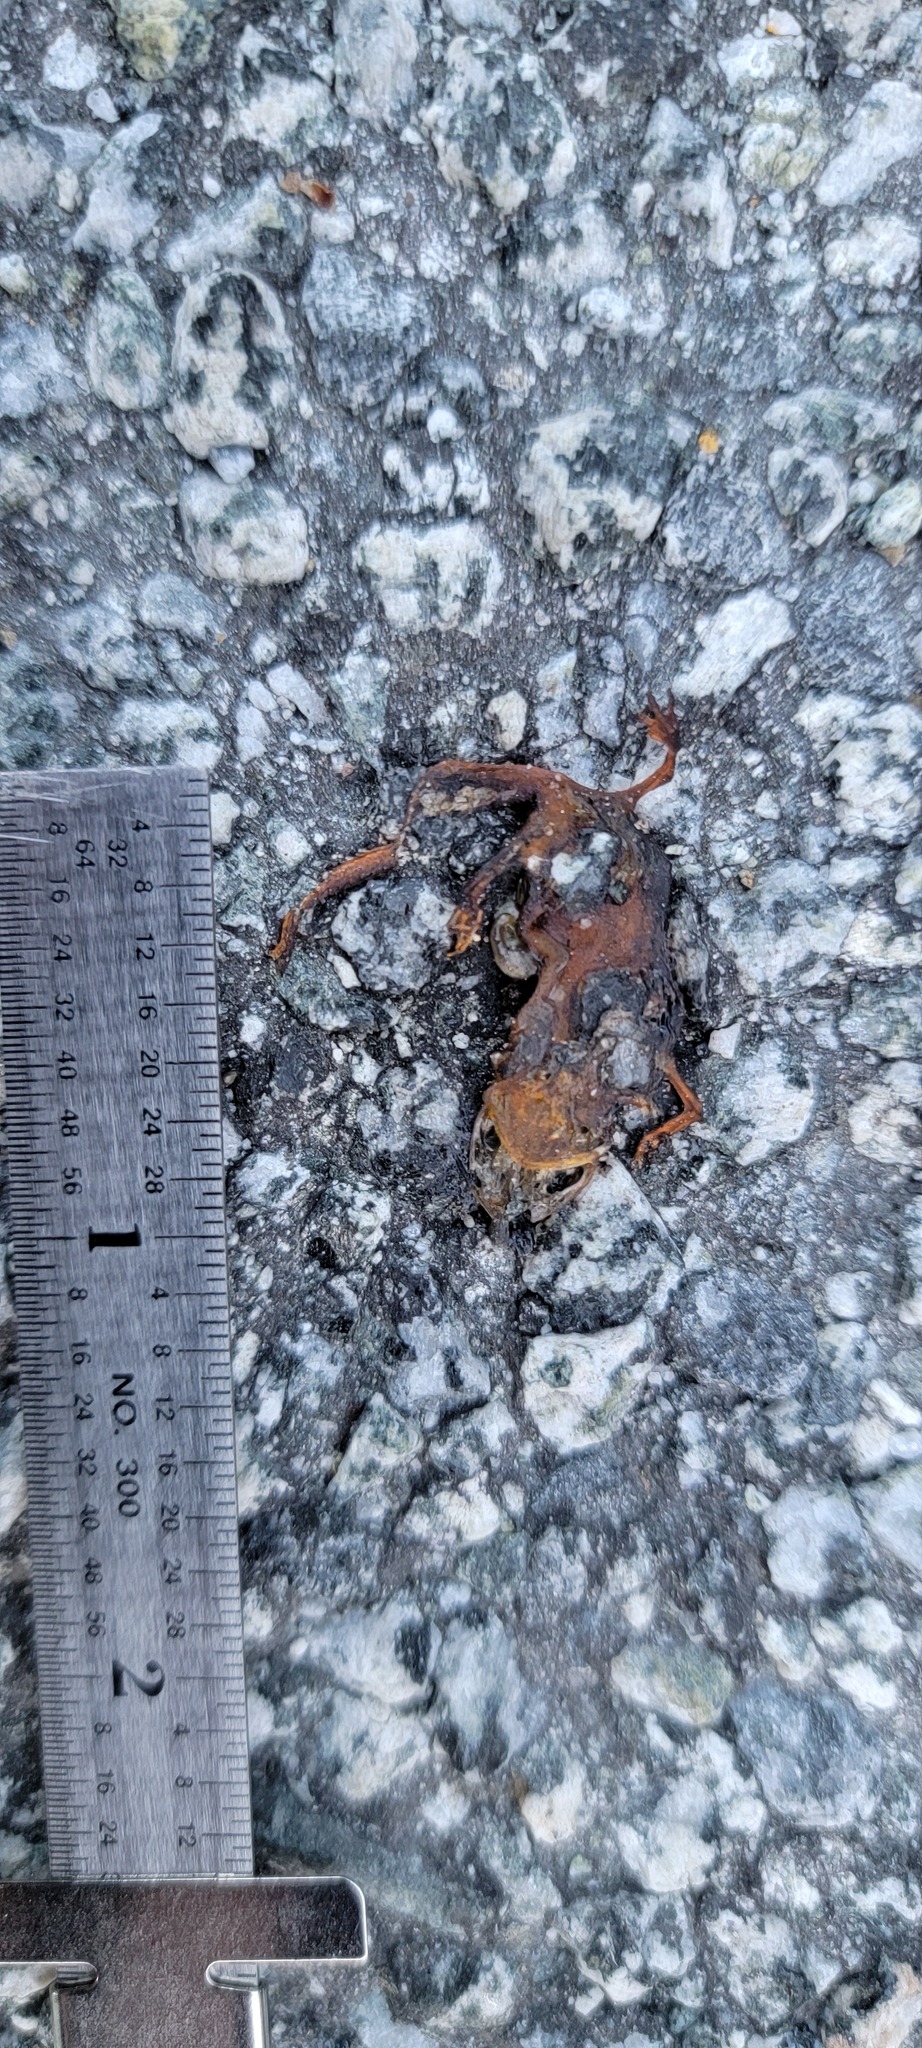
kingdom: Animalia
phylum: Chordata
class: Amphibia
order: Caudata
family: Salamandridae
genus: Taricha
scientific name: Taricha
